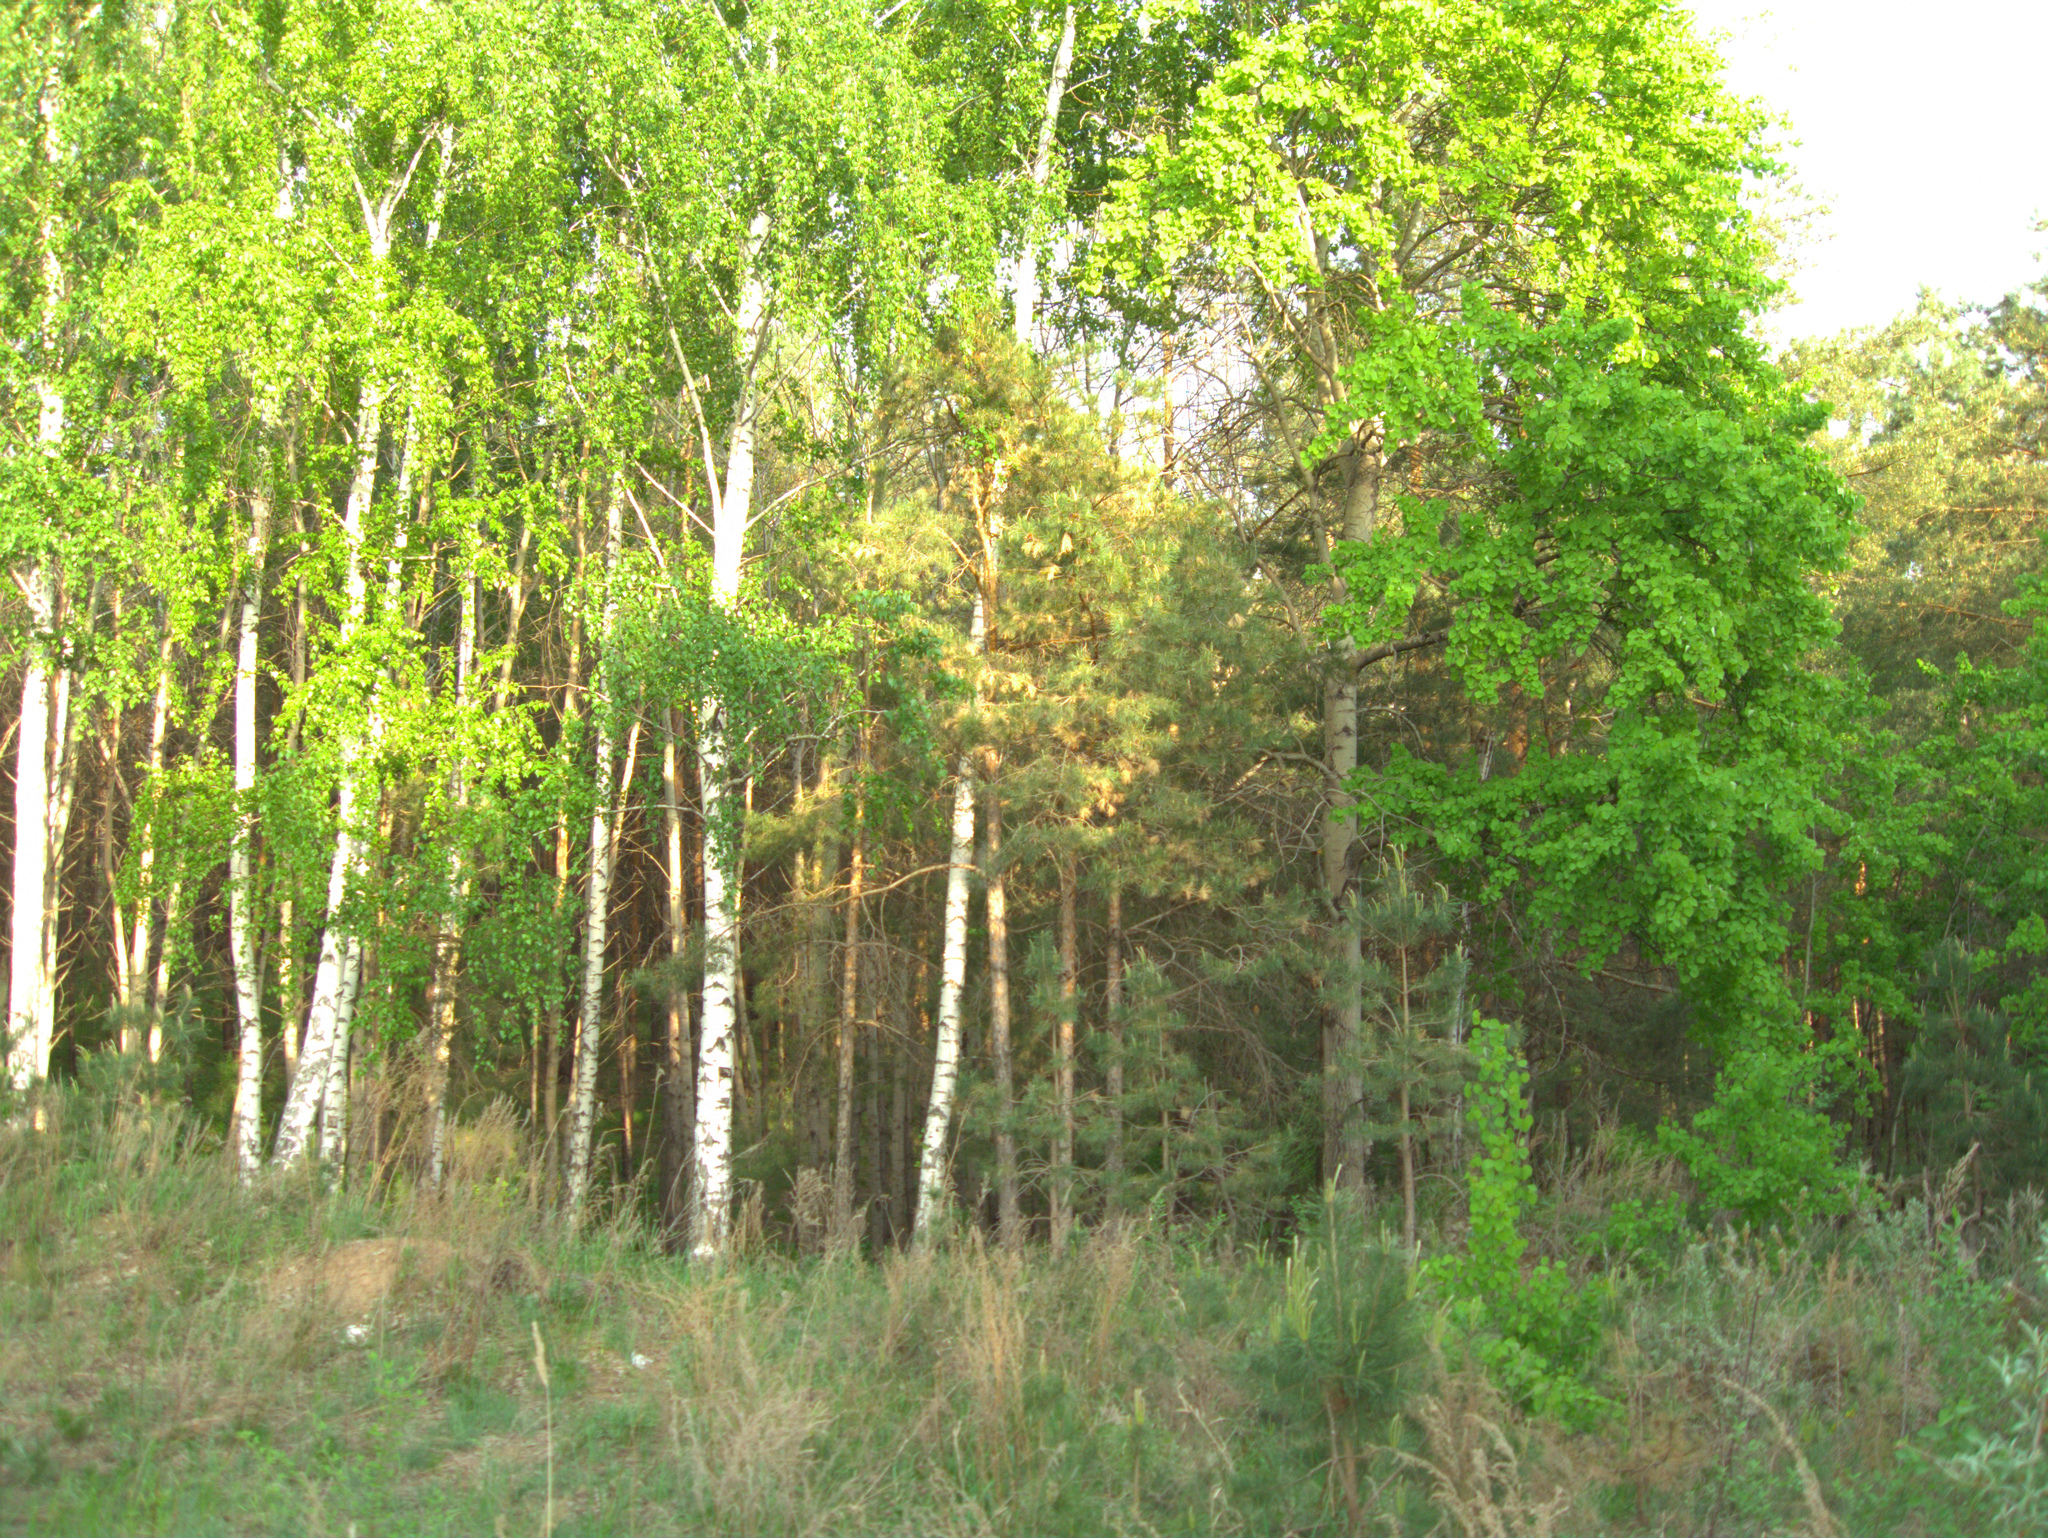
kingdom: Plantae
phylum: Tracheophyta
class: Magnoliopsida
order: Malpighiales
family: Salicaceae
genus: Populus
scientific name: Populus tremula
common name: European aspen
